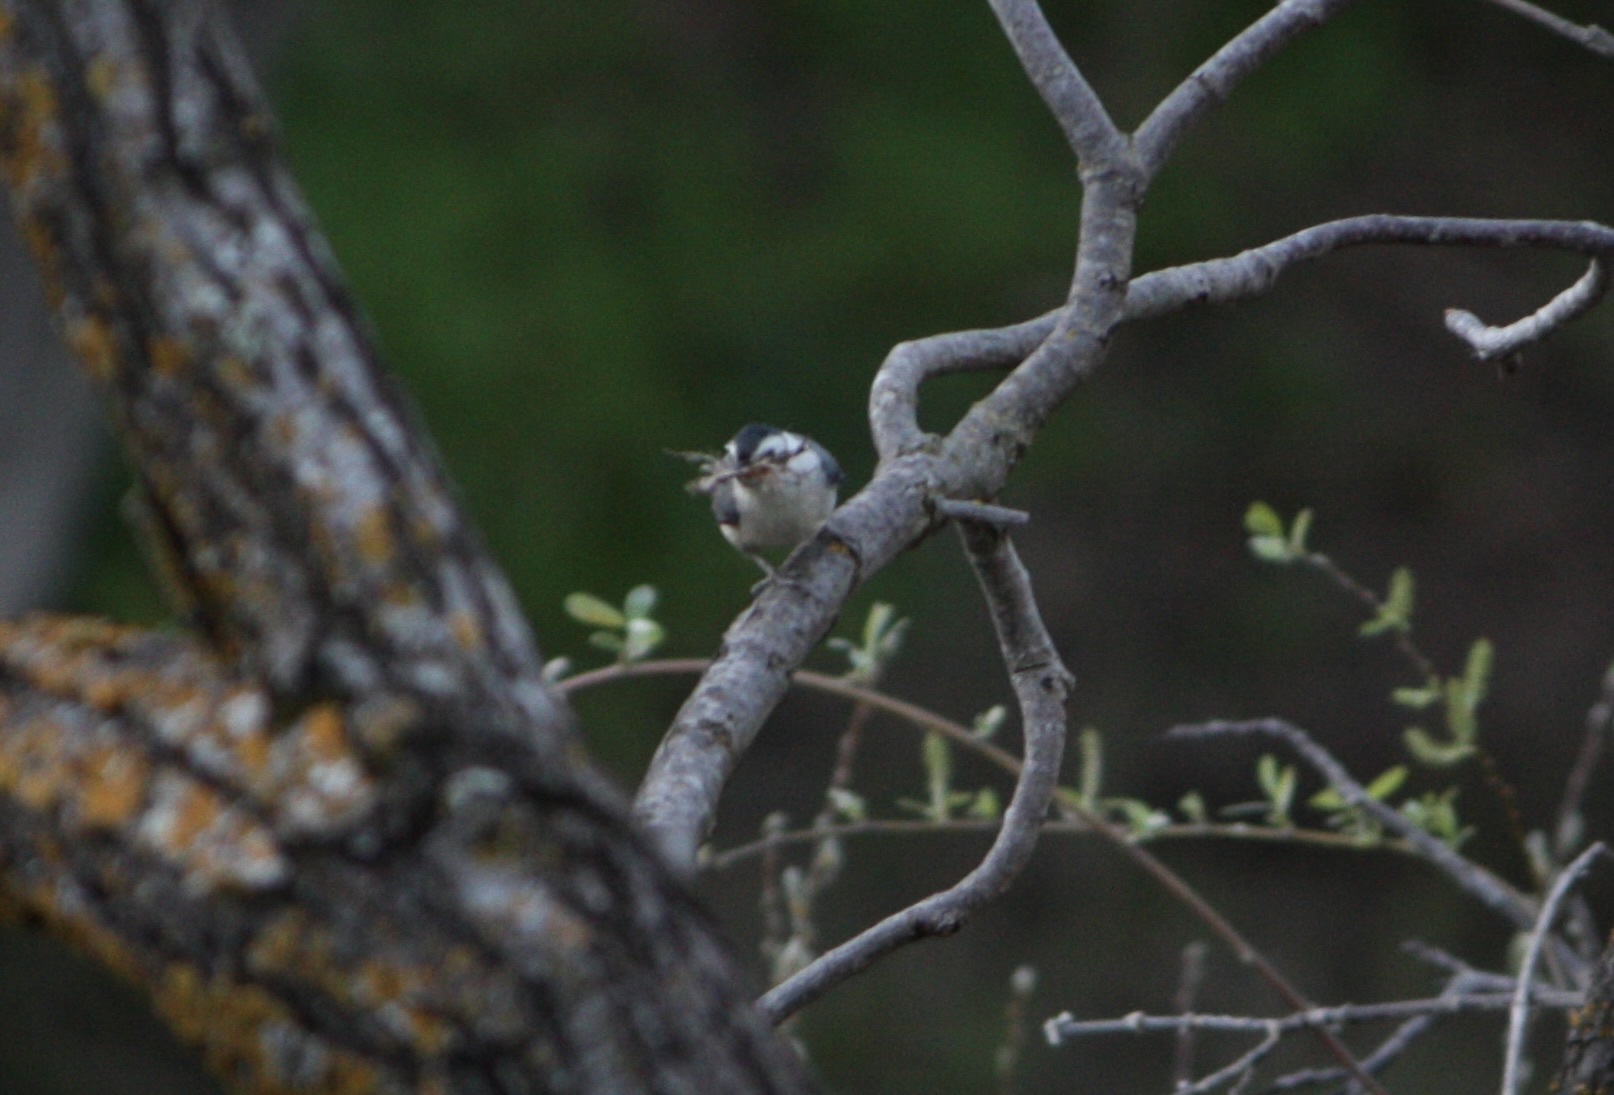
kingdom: Animalia
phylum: Chordata
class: Aves
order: Passeriformes
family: Sittidae
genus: Sitta
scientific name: Sitta carolinensis
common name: White-breasted nuthatch
